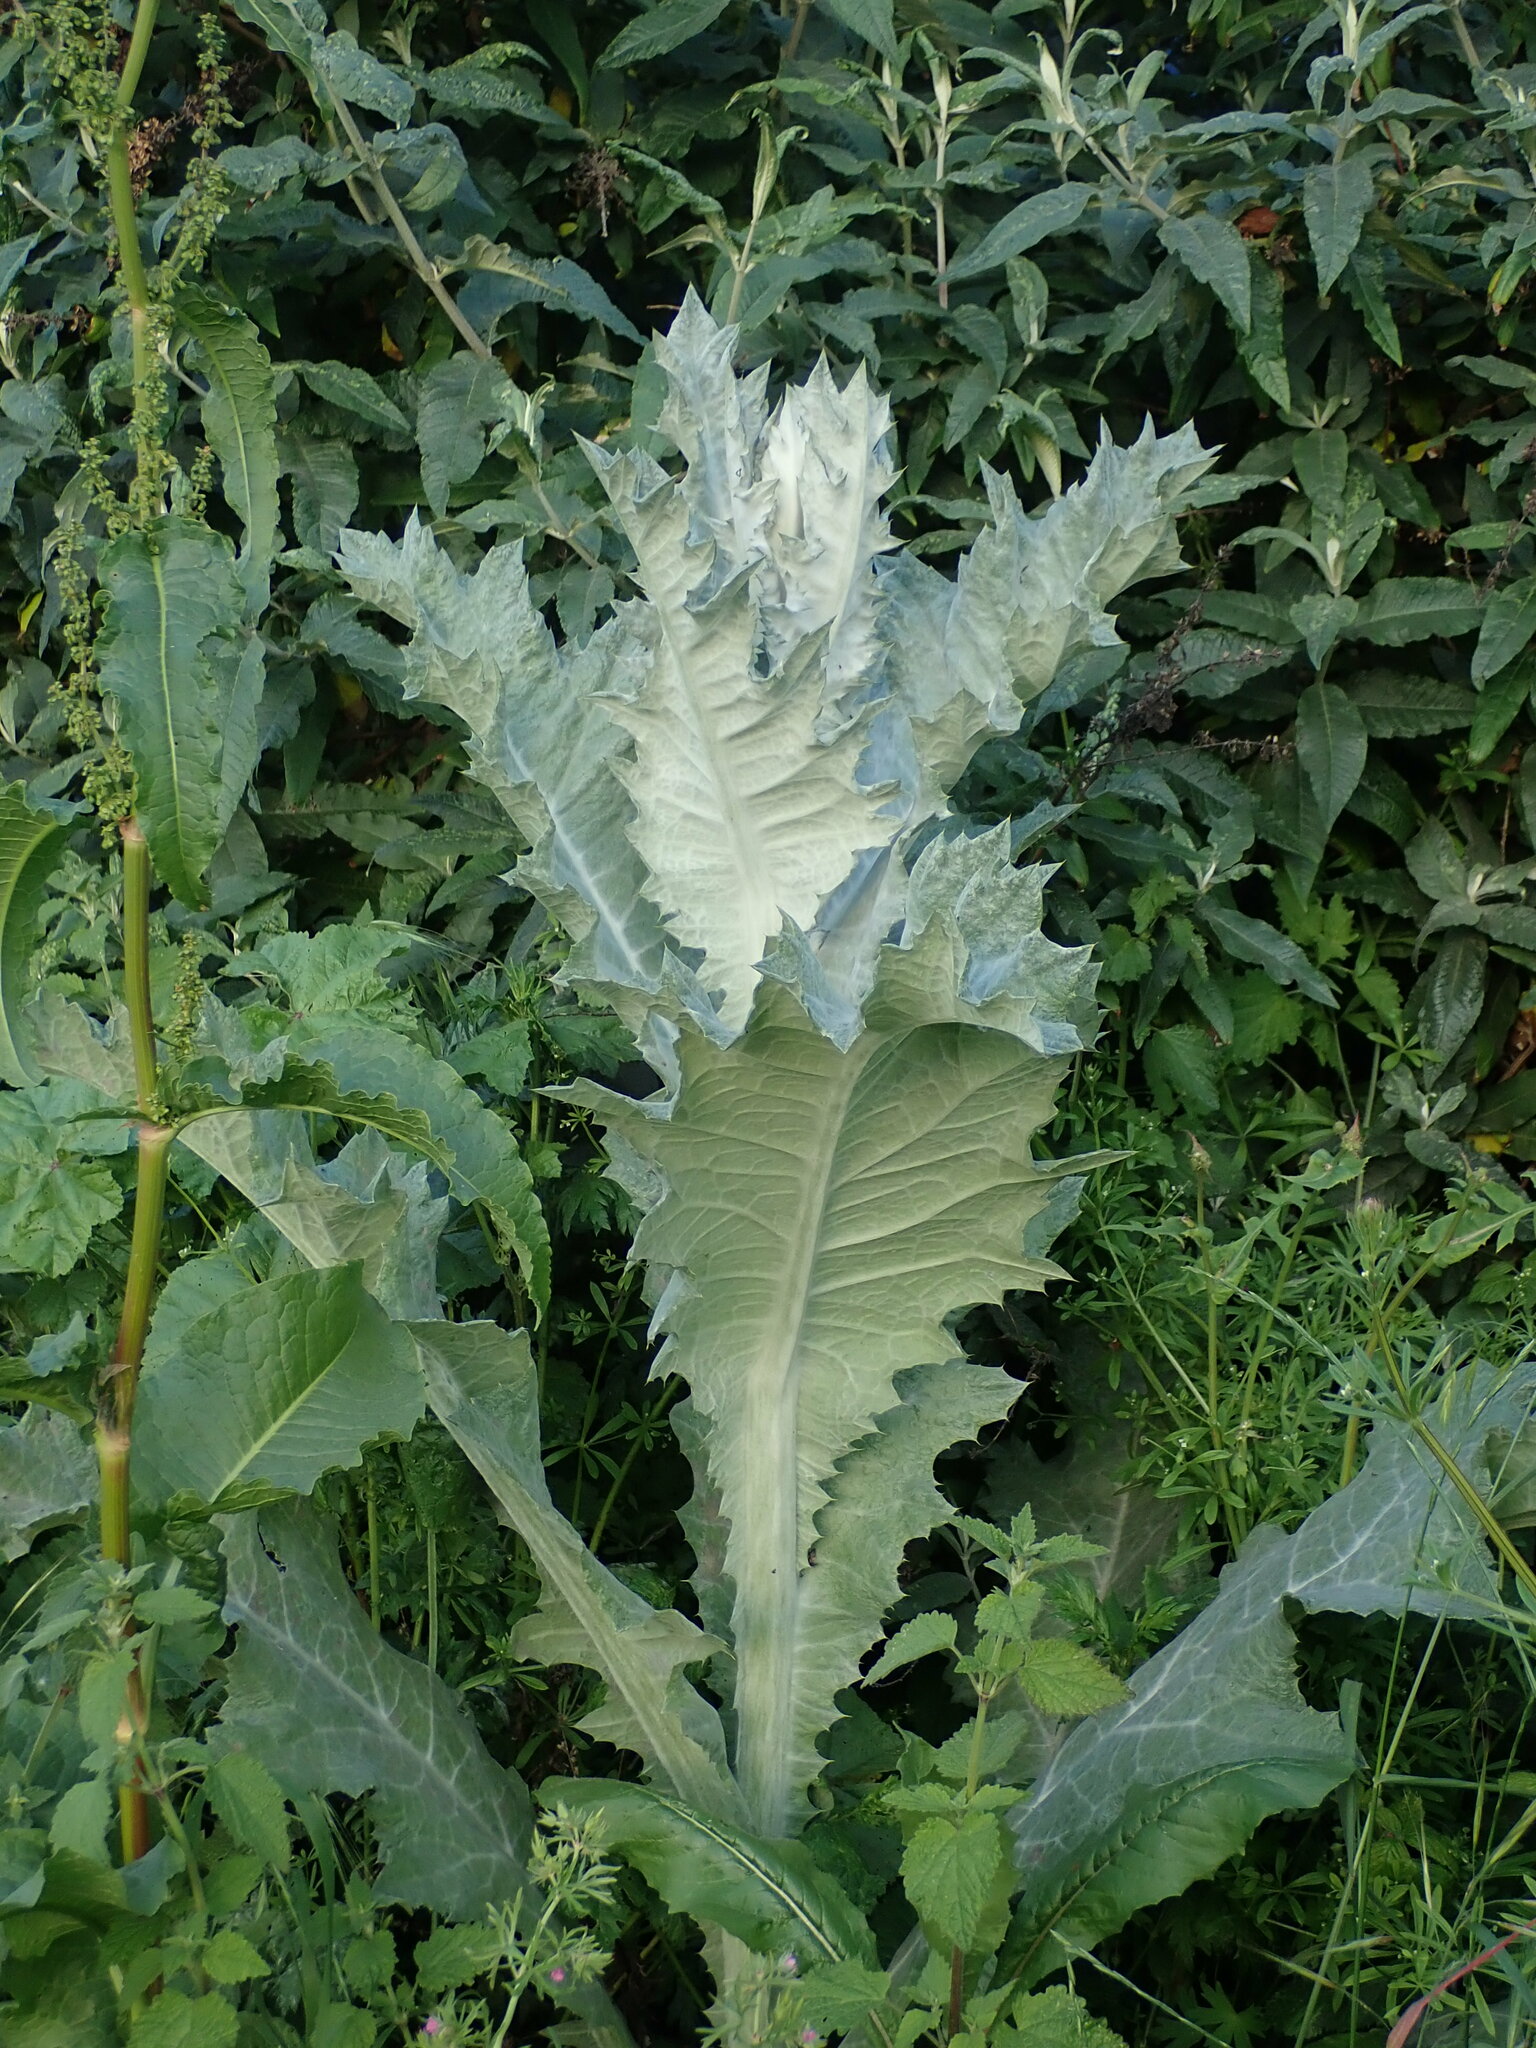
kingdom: Plantae
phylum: Tracheophyta
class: Magnoliopsida
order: Asterales
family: Asteraceae
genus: Onopordum
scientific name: Onopordum acanthium
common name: Scotch thistle
